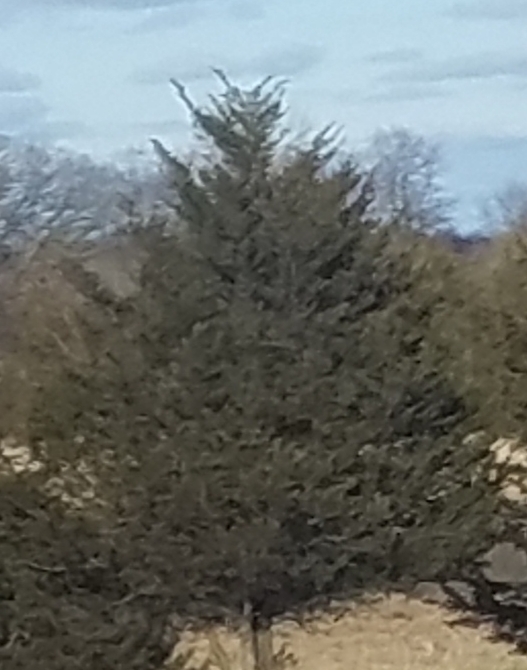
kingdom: Plantae
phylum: Tracheophyta
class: Pinopsida
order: Pinales
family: Cupressaceae
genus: Juniperus
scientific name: Juniperus virginiana
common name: Red juniper
